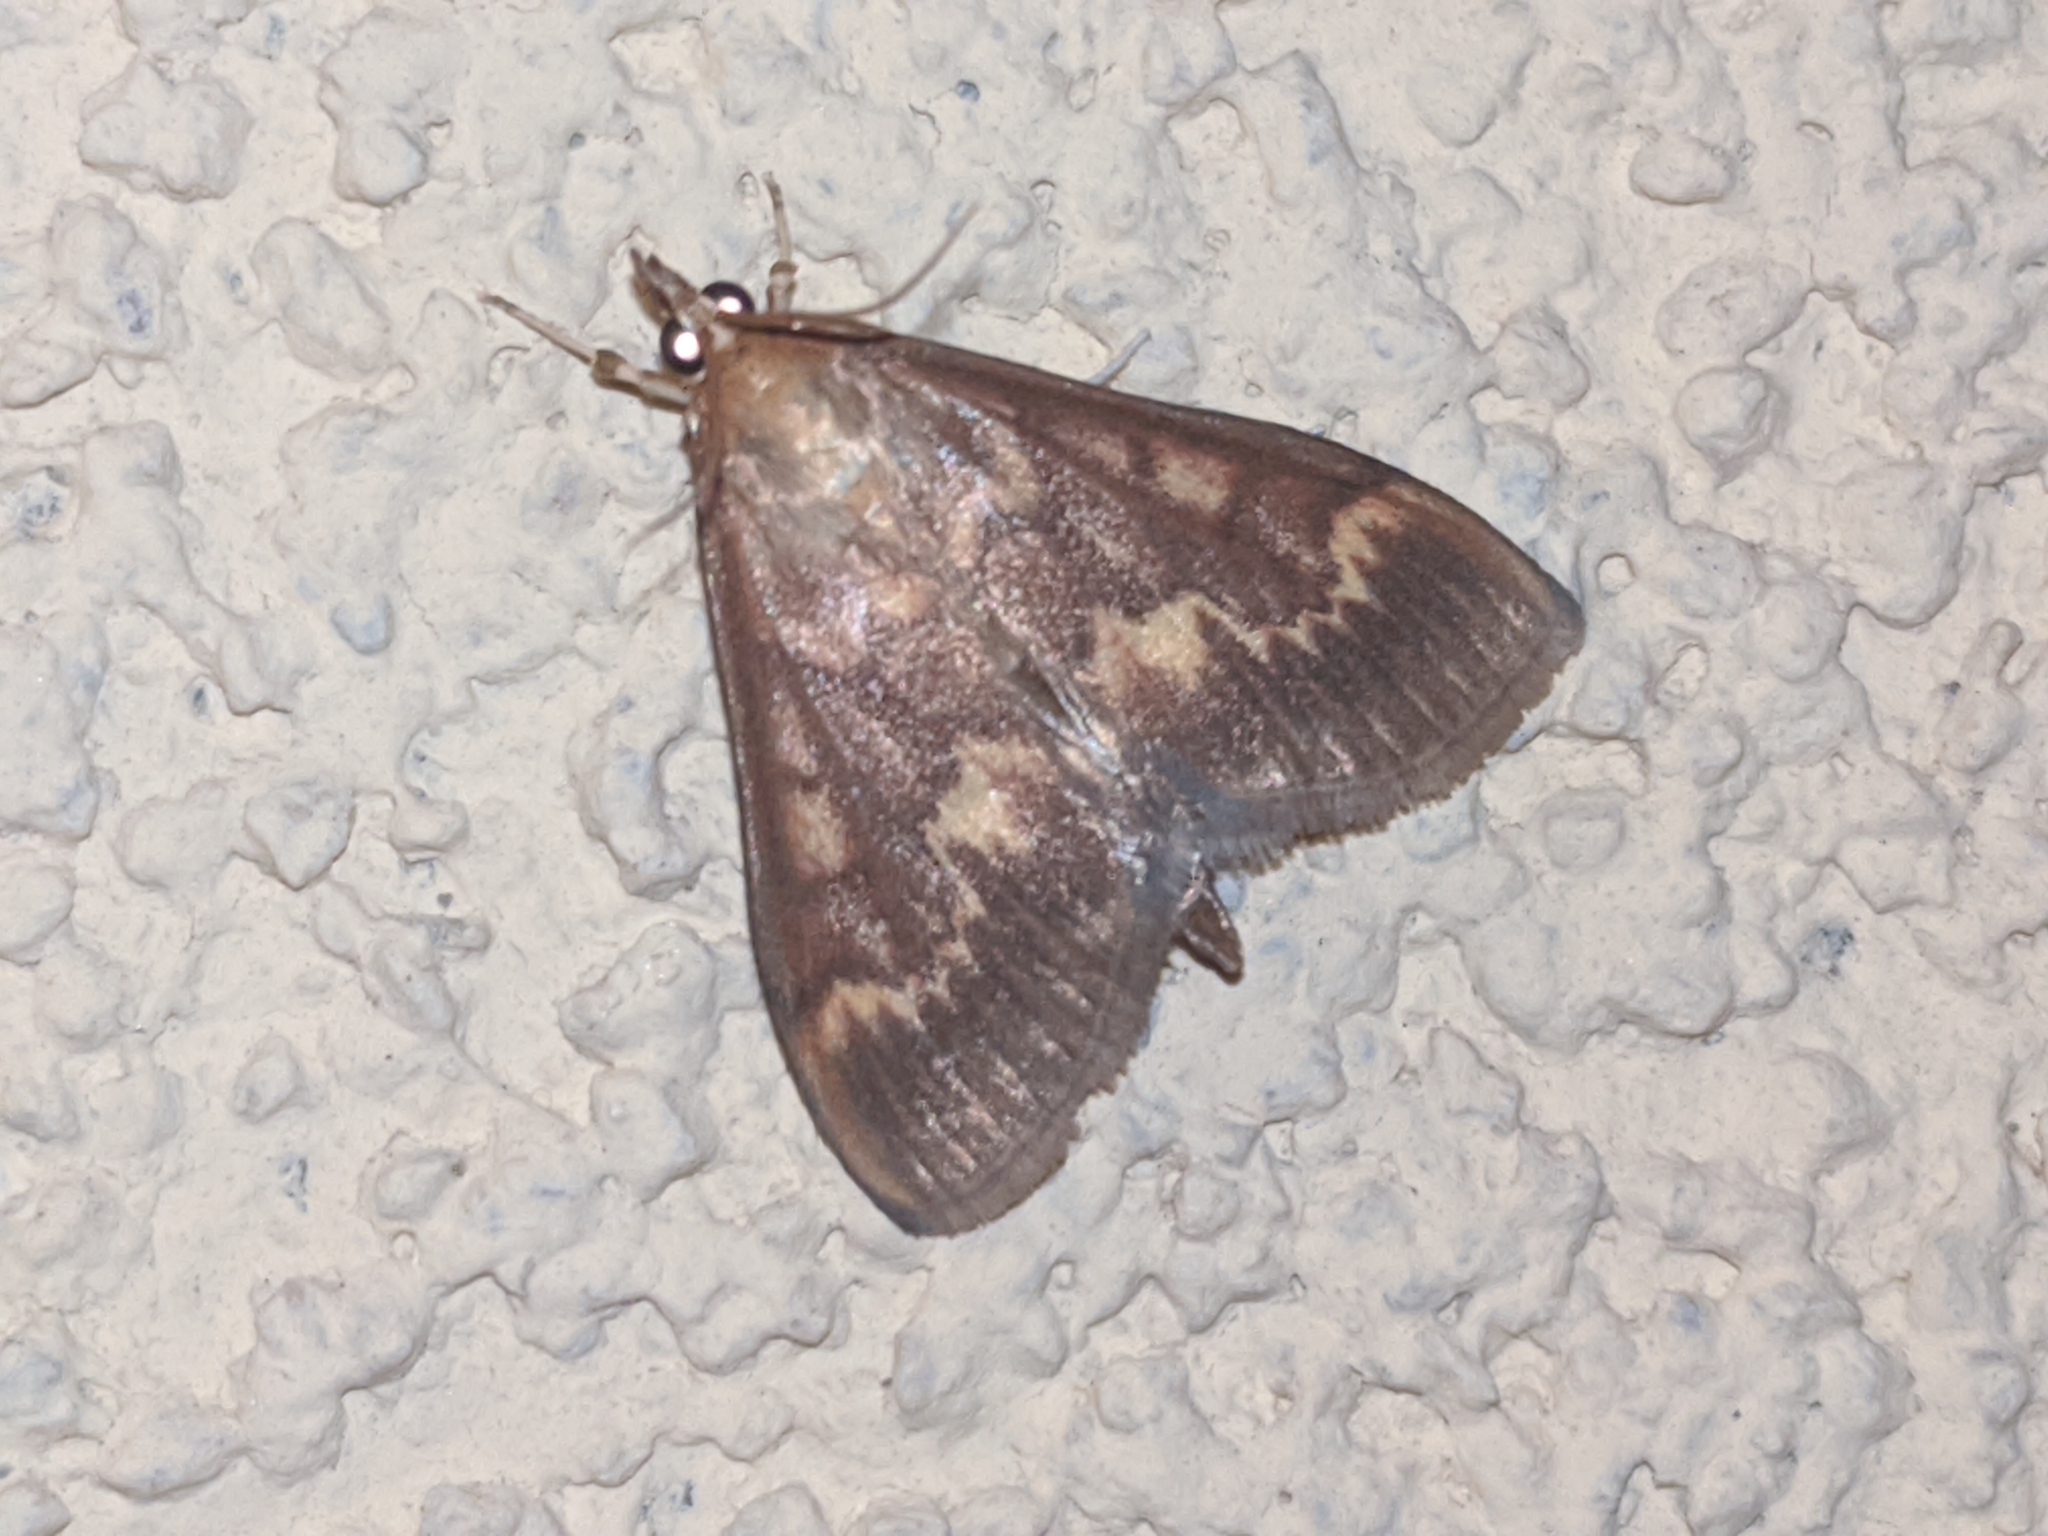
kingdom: Animalia
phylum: Arthropoda
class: Insecta
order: Lepidoptera
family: Crambidae
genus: Ostrinia
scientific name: Ostrinia nubilalis
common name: European corn borer
